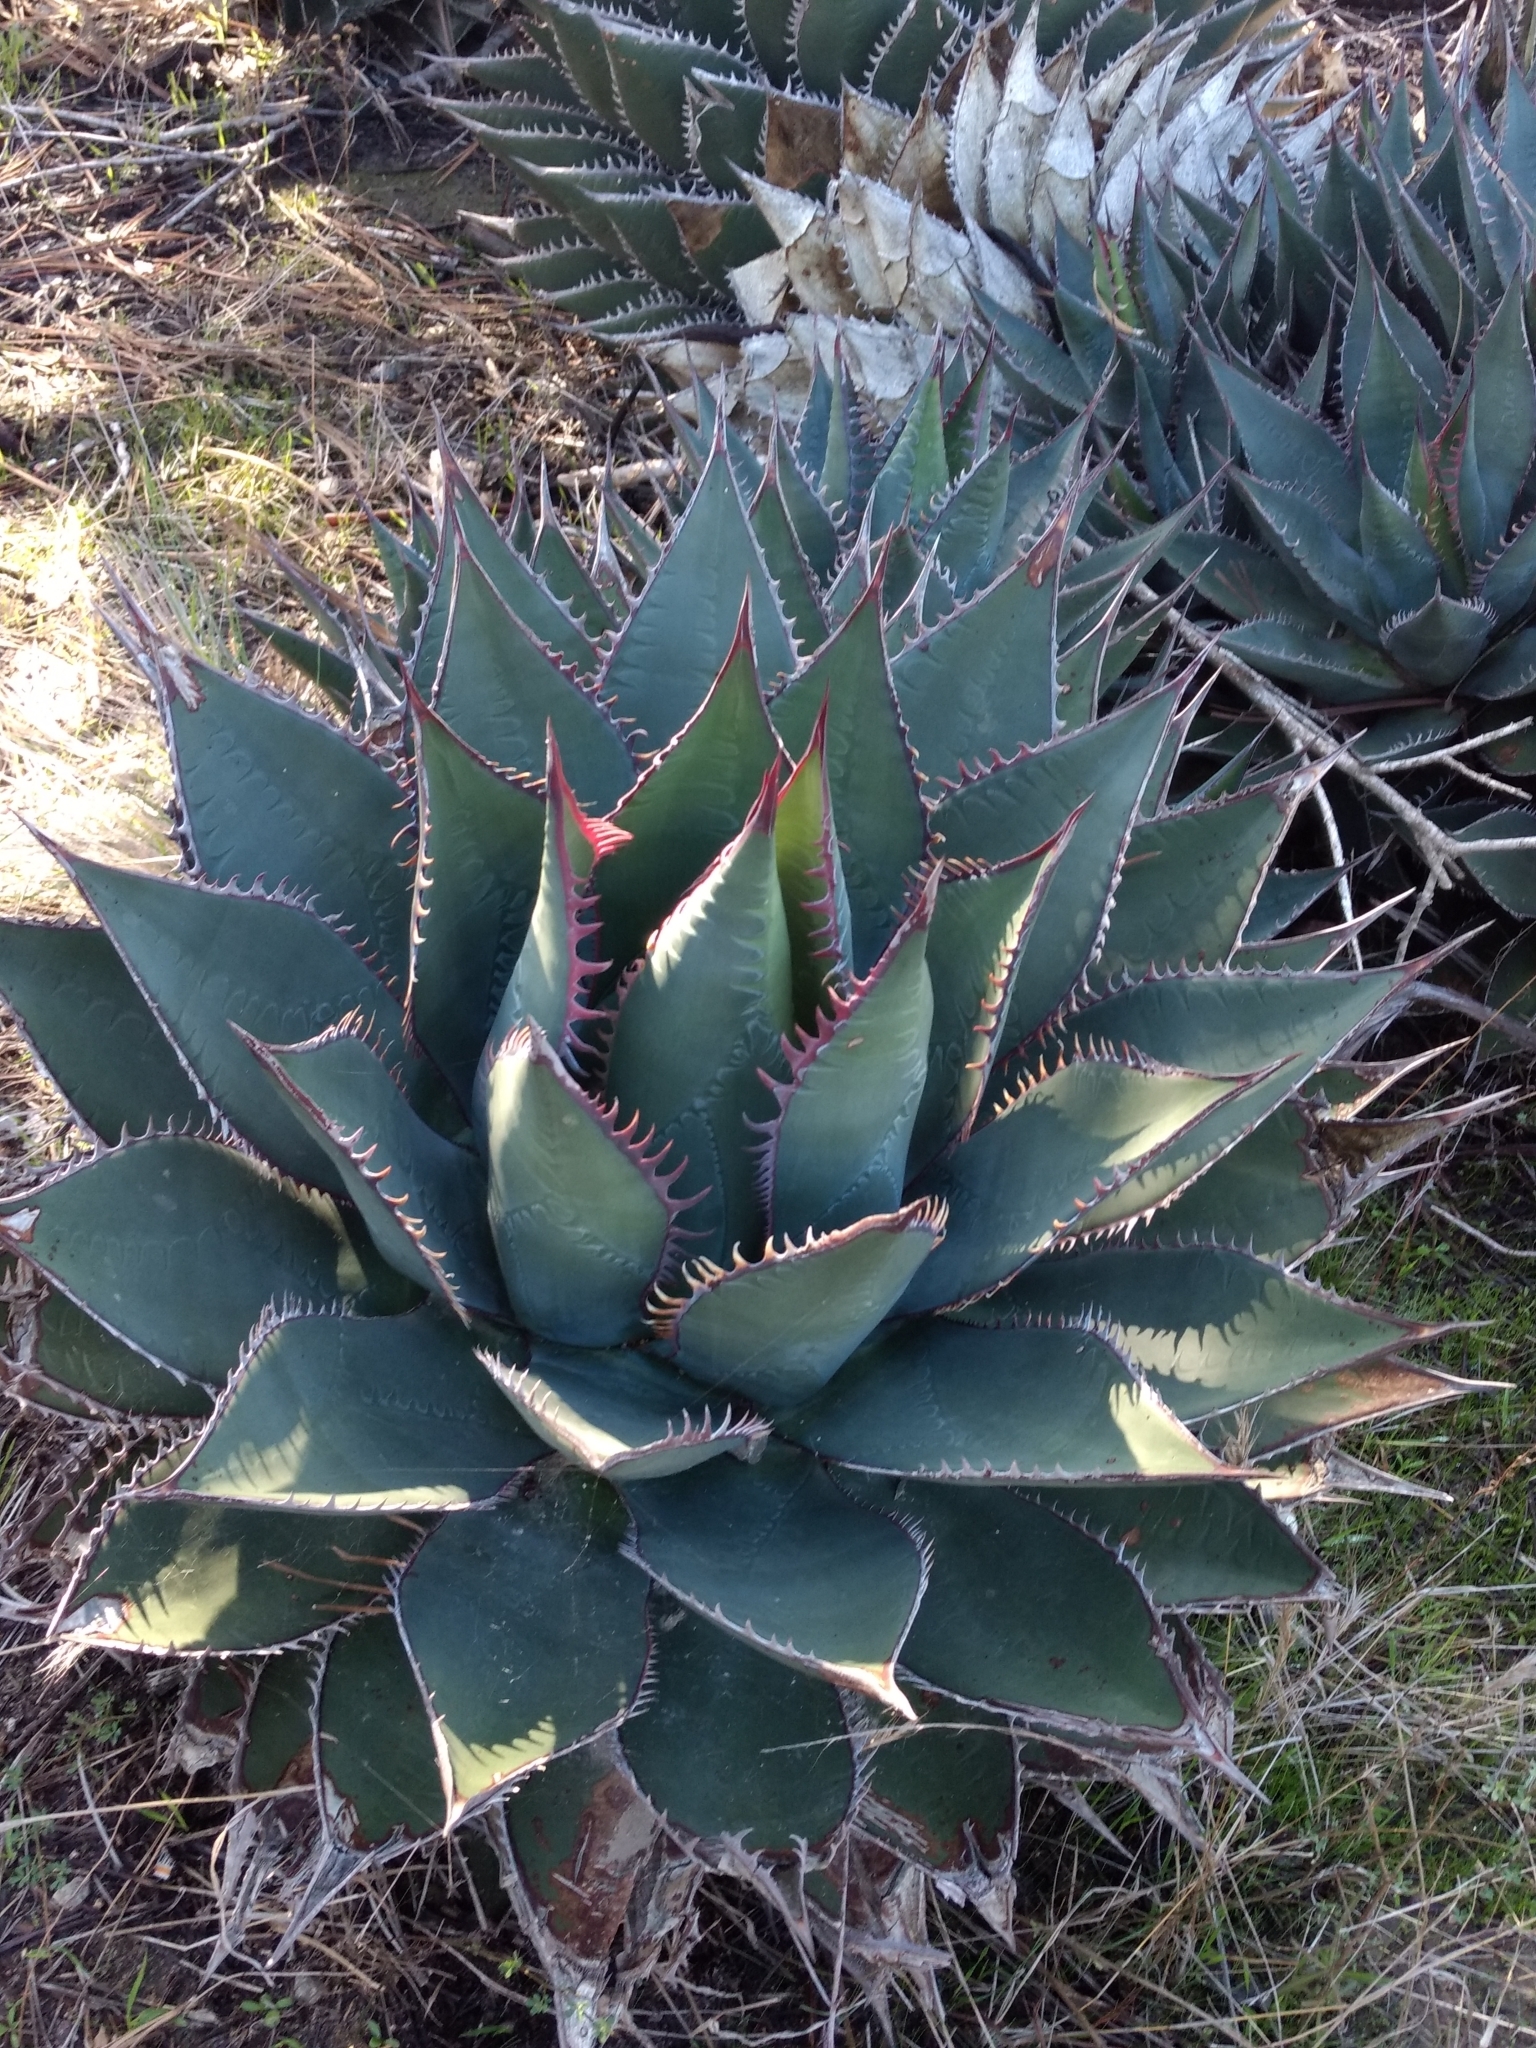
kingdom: Plantae
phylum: Tracheophyta
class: Liliopsida
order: Asparagales
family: Asparagaceae
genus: Agave
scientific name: Agave shawii
